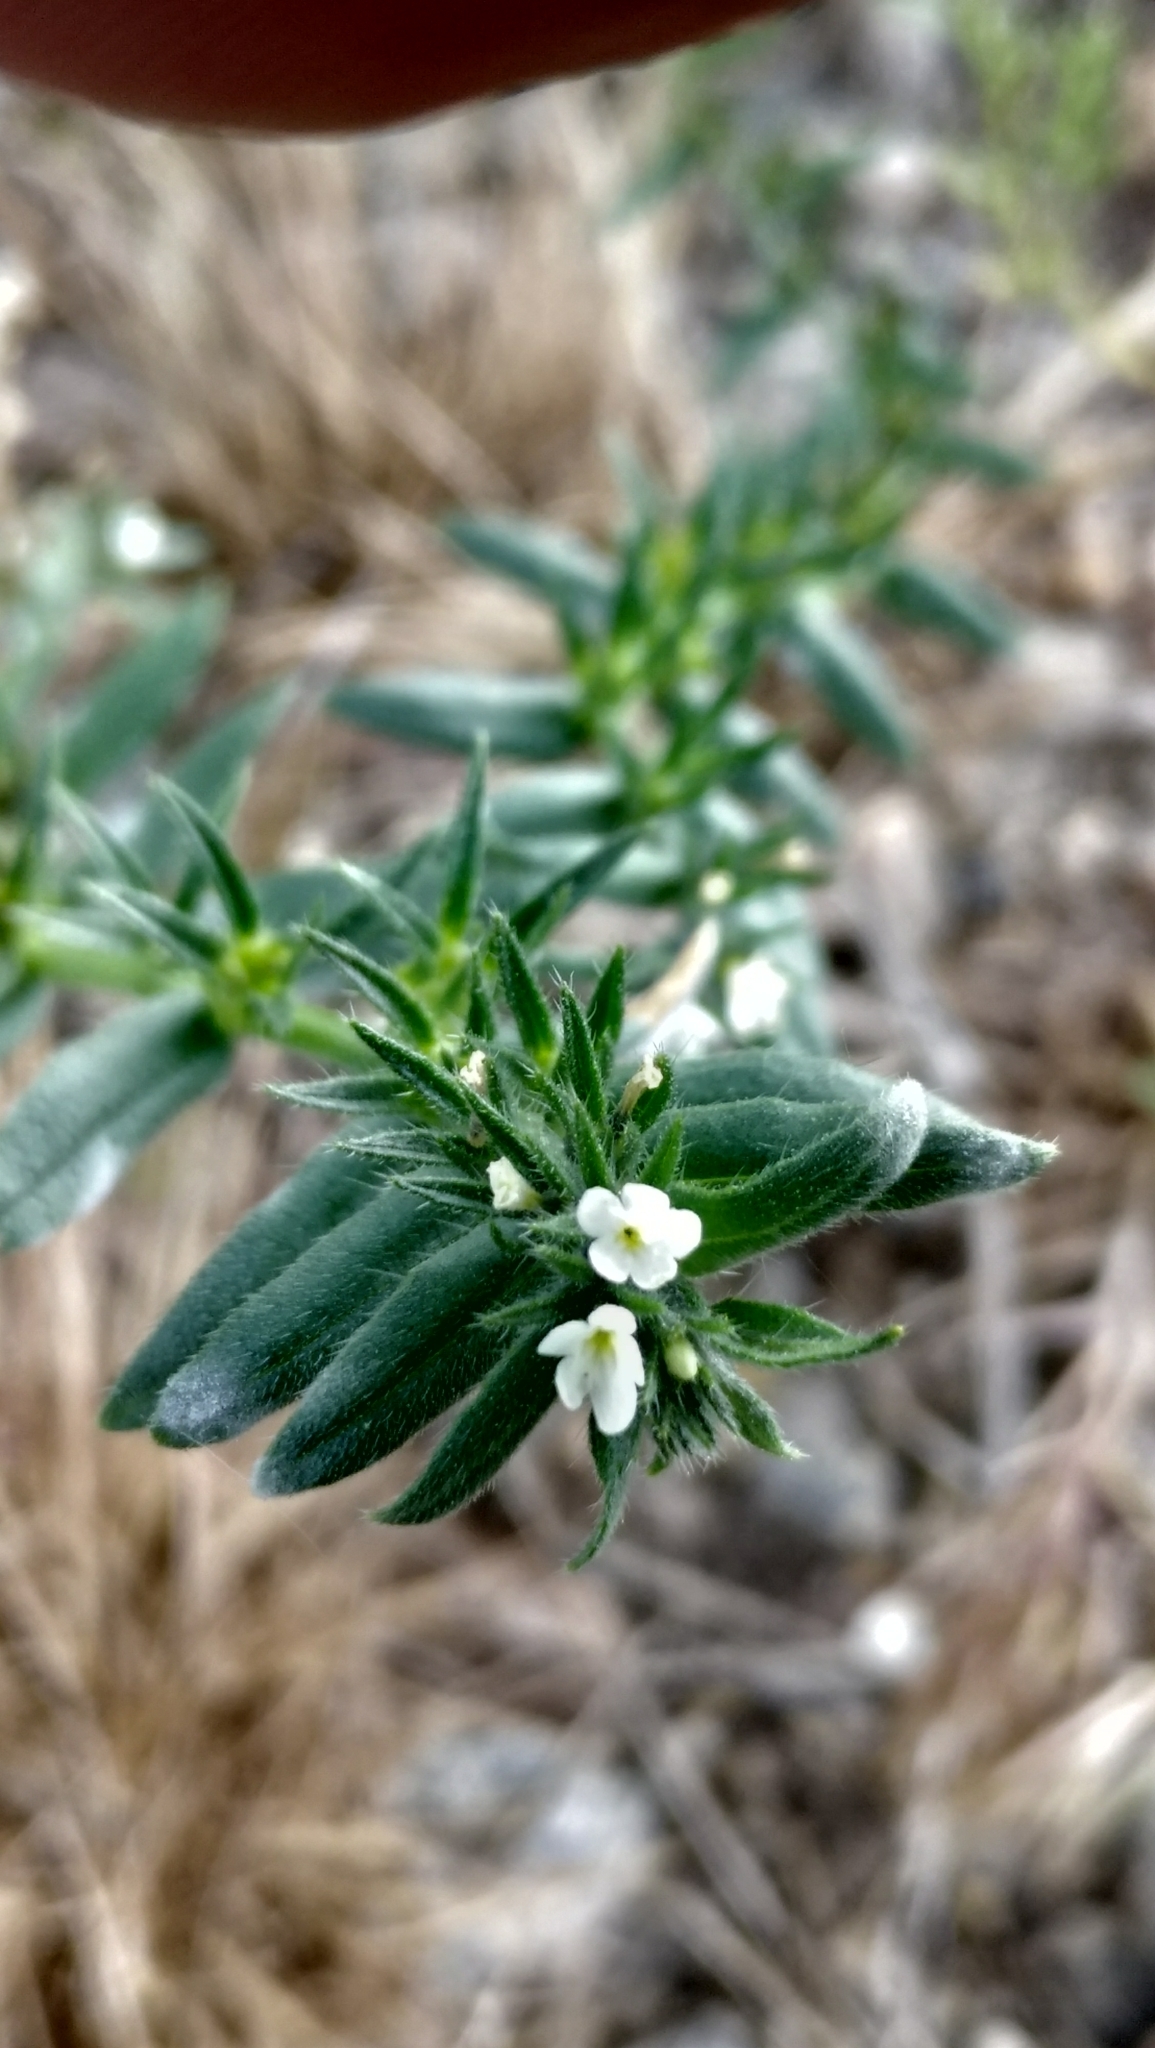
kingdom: Plantae
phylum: Tracheophyta
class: Magnoliopsida
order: Boraginales
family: Boraginaceae
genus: Buglossoides
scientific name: Buglossoides arvensis
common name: Corn gromwell
